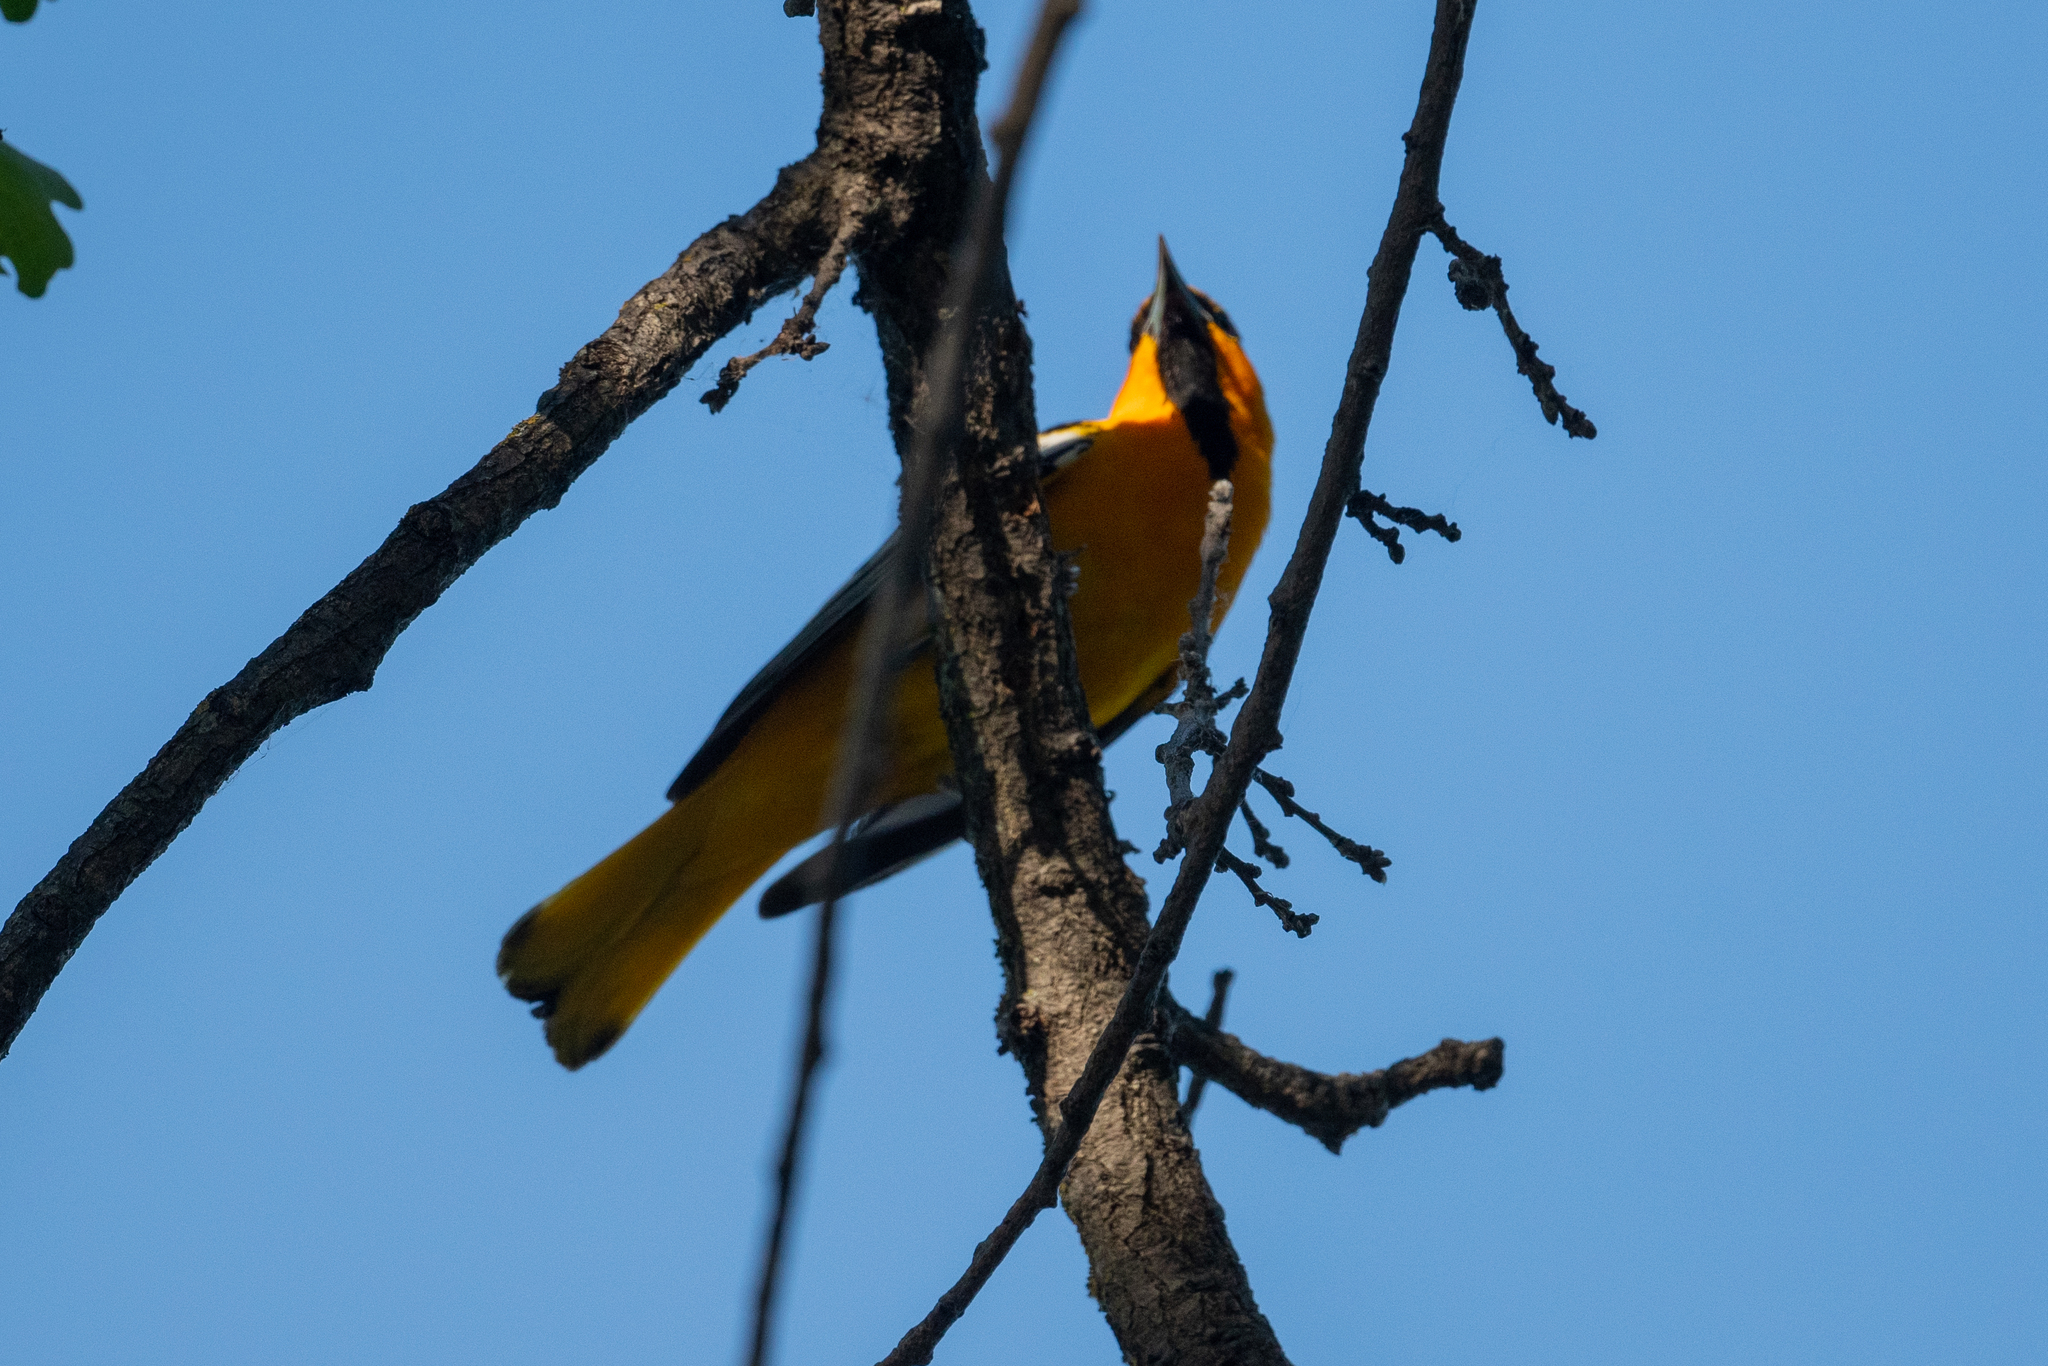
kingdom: Animalia
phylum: Chordata
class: Aves
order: Passeriformes
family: Icteridae
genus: Icterus
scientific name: Icterus bullockii
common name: Bullock's oriole
